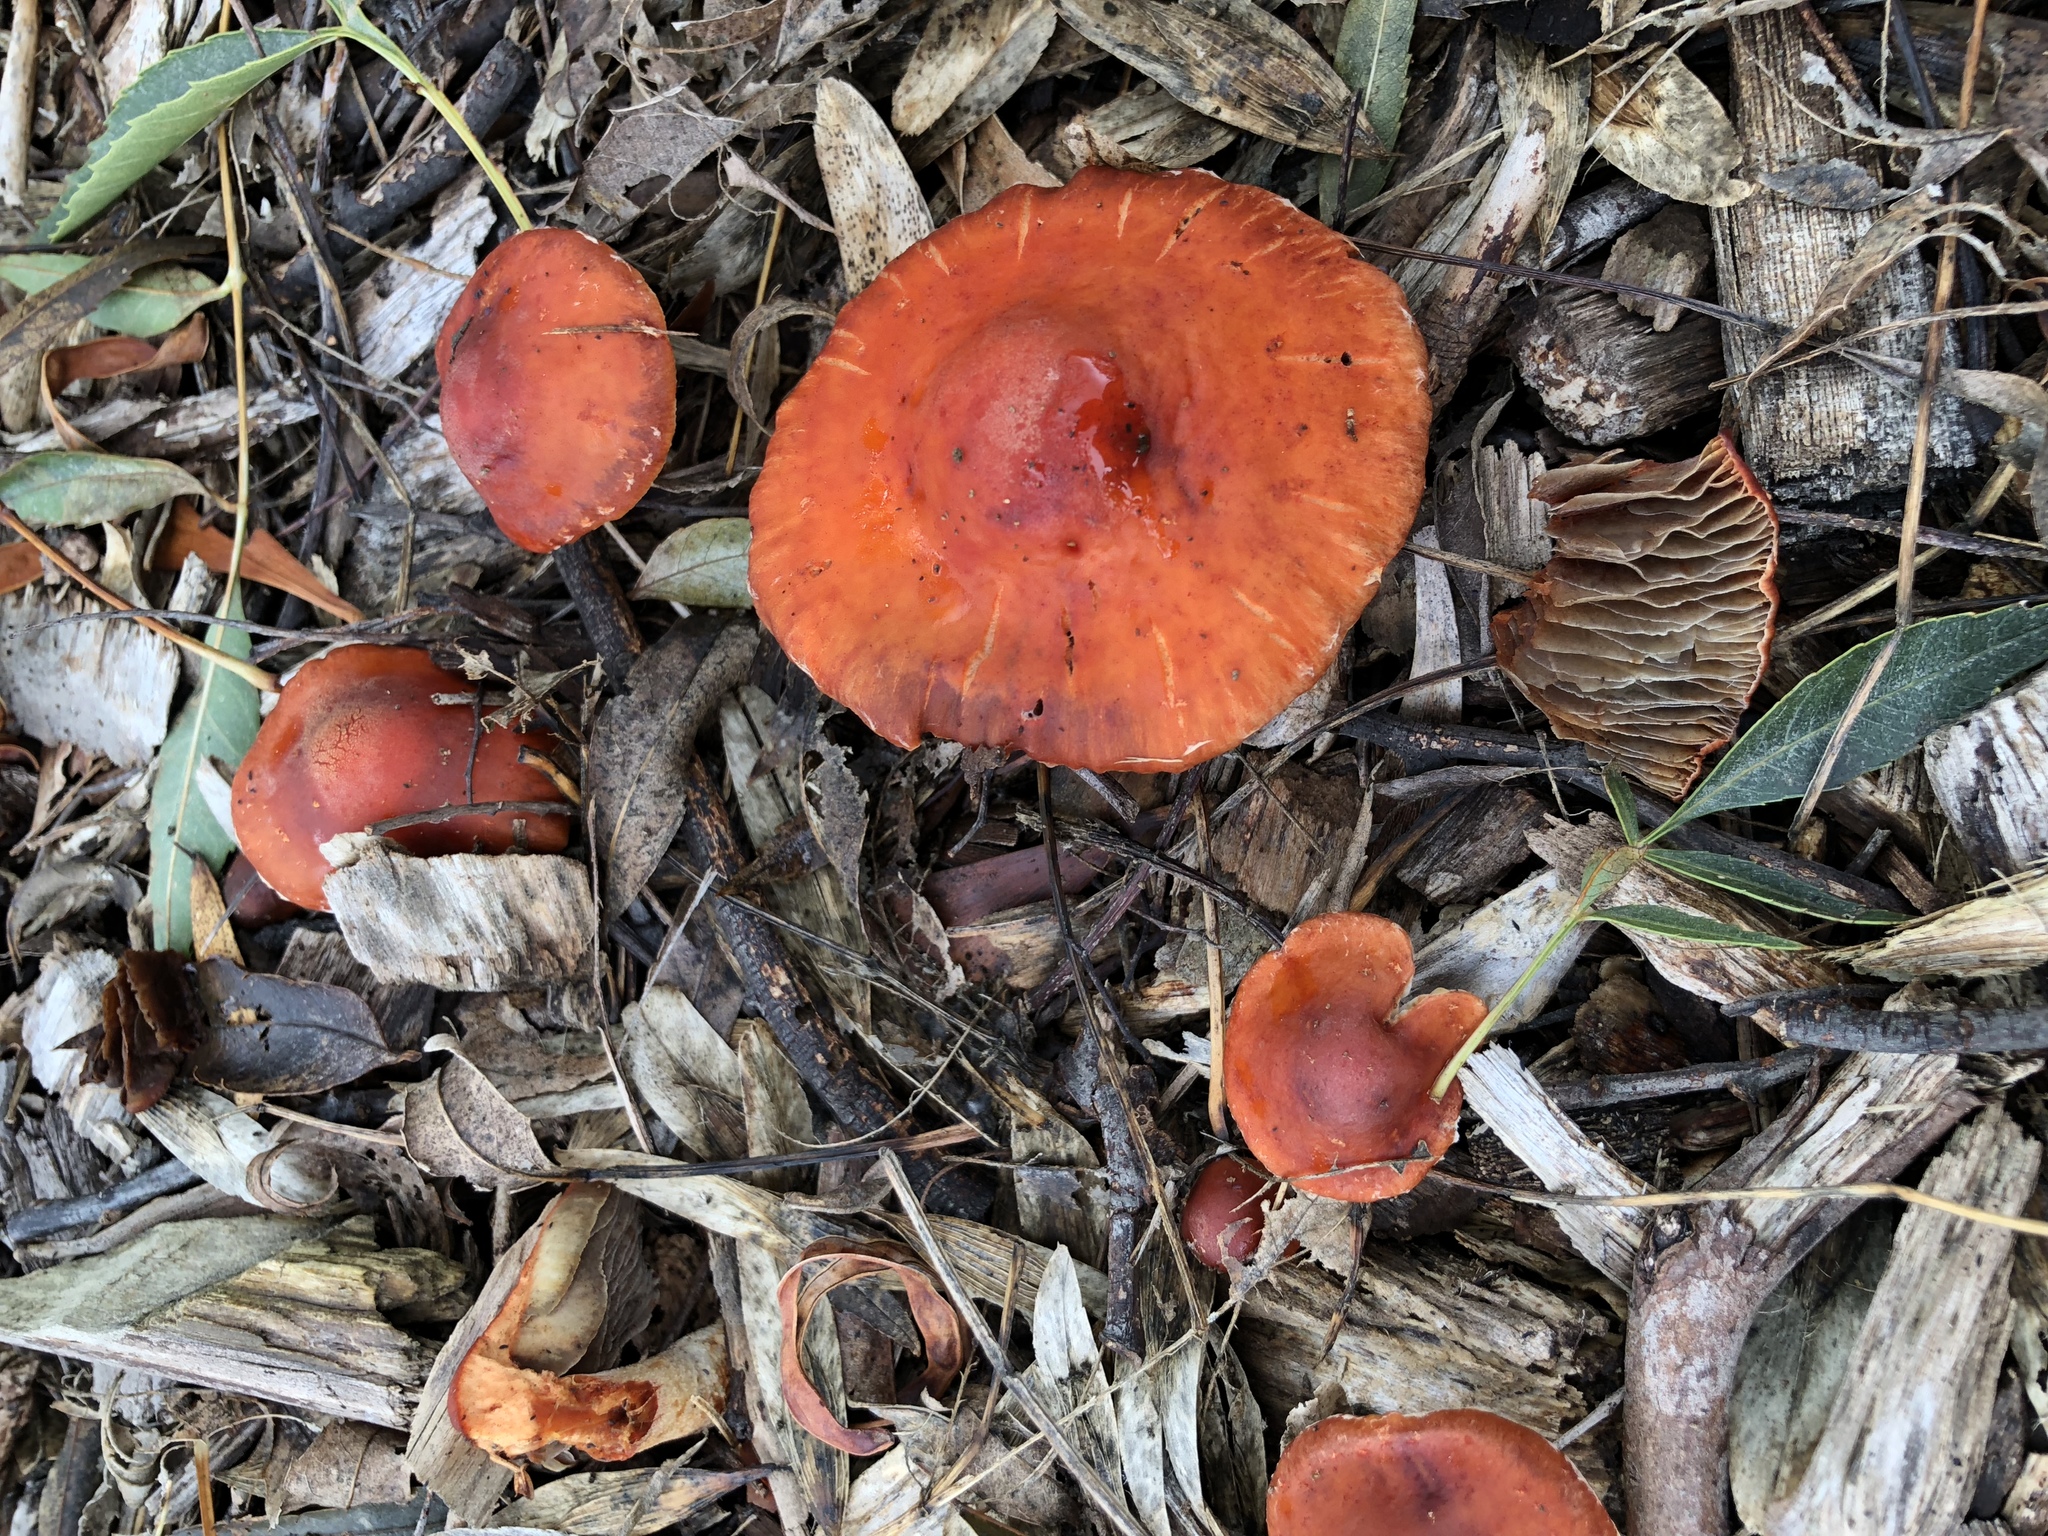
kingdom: Fungi
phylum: Basidiomycota
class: Agaricomycetes
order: Agaricales
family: Strophariaceae
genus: Leratiomyces
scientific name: Leratiomyces ceres
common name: Redlead roundhead
